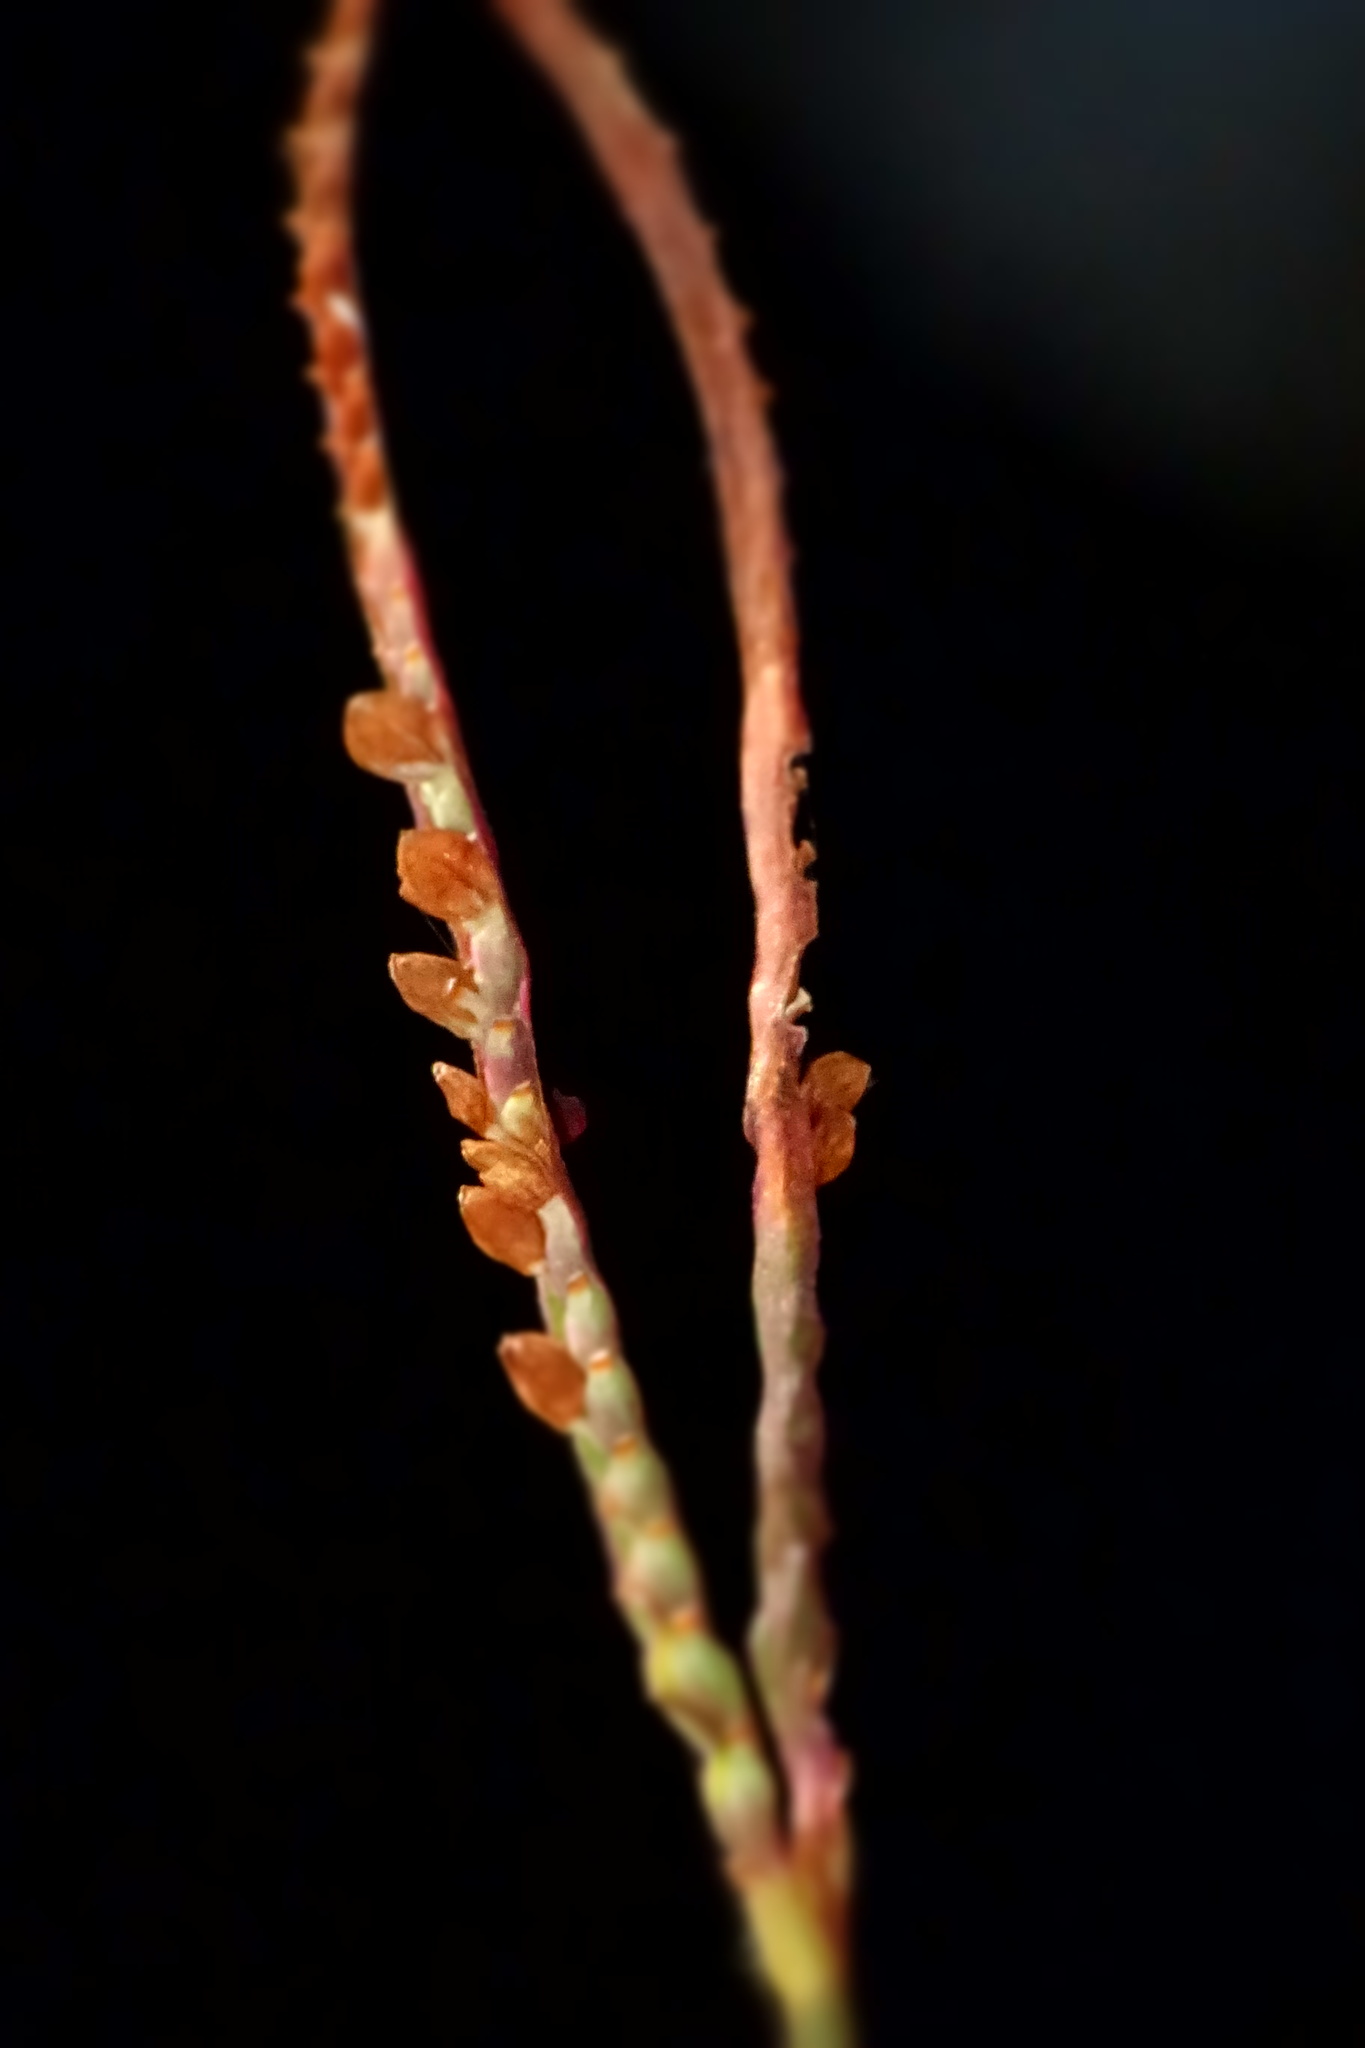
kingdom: Plantae
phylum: Tracheophyta
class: Liliopsida
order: Poales
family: Poaceae
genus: Paspalum
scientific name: Paspalum scrobiculatum
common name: Kodo millet
